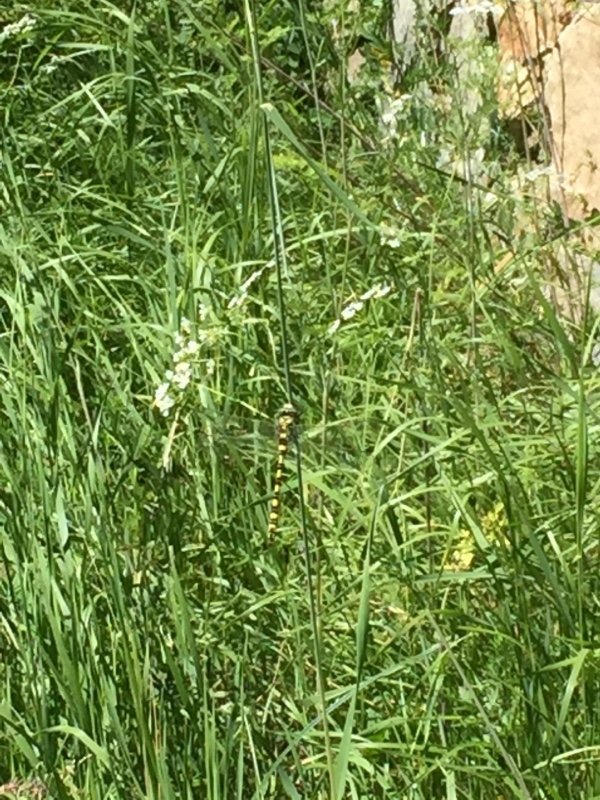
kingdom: Animalia
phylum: Arthropoda
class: Insecta
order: Odonata
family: Cordulegastridae
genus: Cordulegaster
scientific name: Cordulegaster charpentieri
